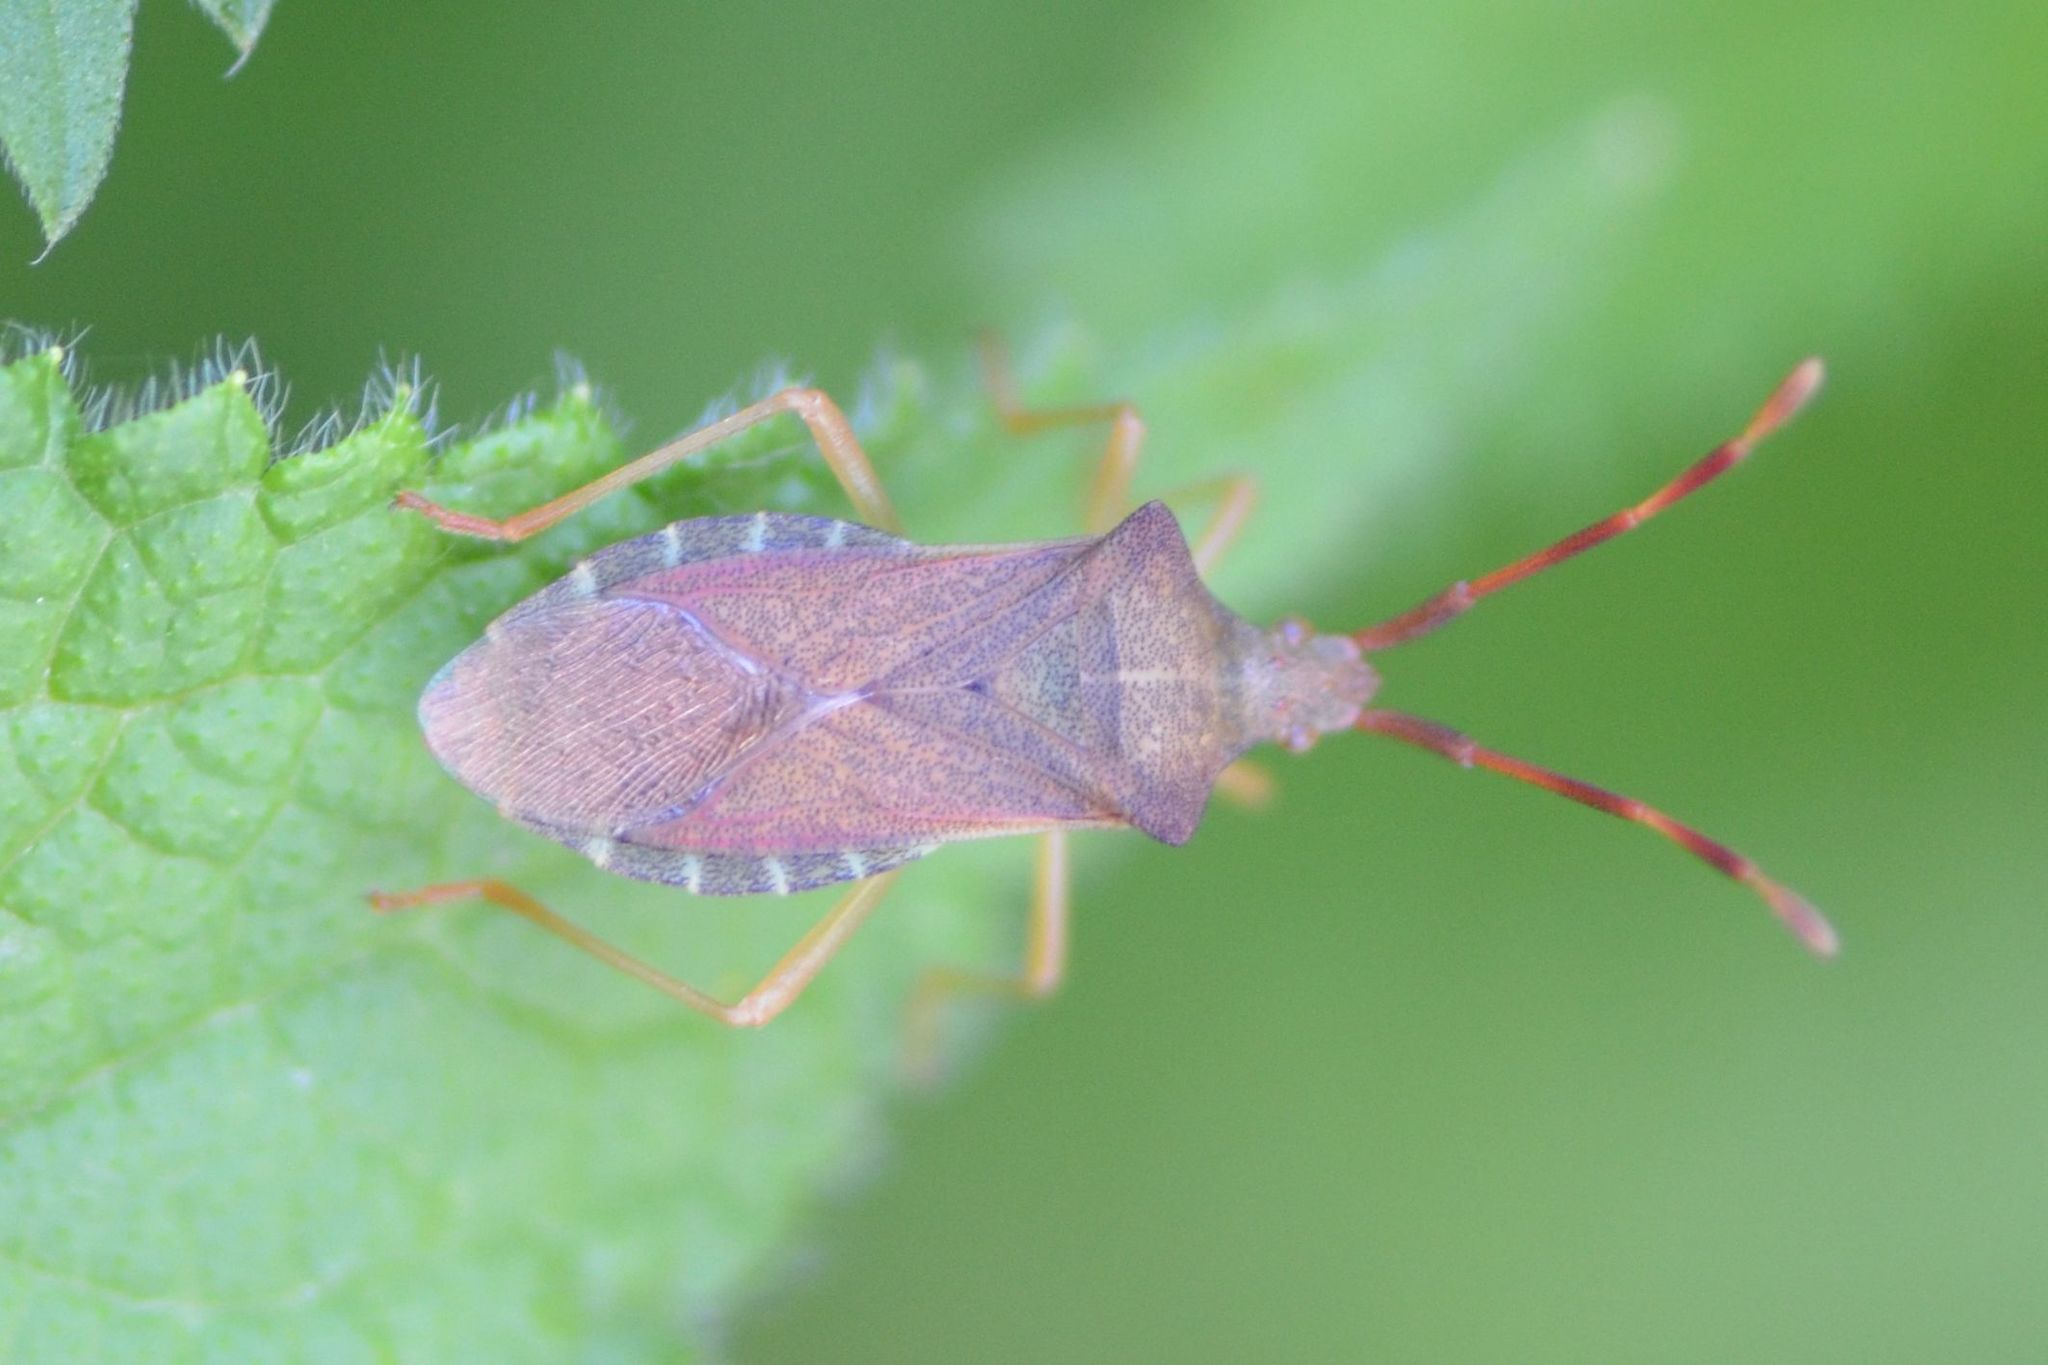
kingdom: Animalia
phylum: Arthropoda
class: Insecta
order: Hemiptera
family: Coreidae
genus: Gonocerus
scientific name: Gonocerus acuteangulatus
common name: Box bug
